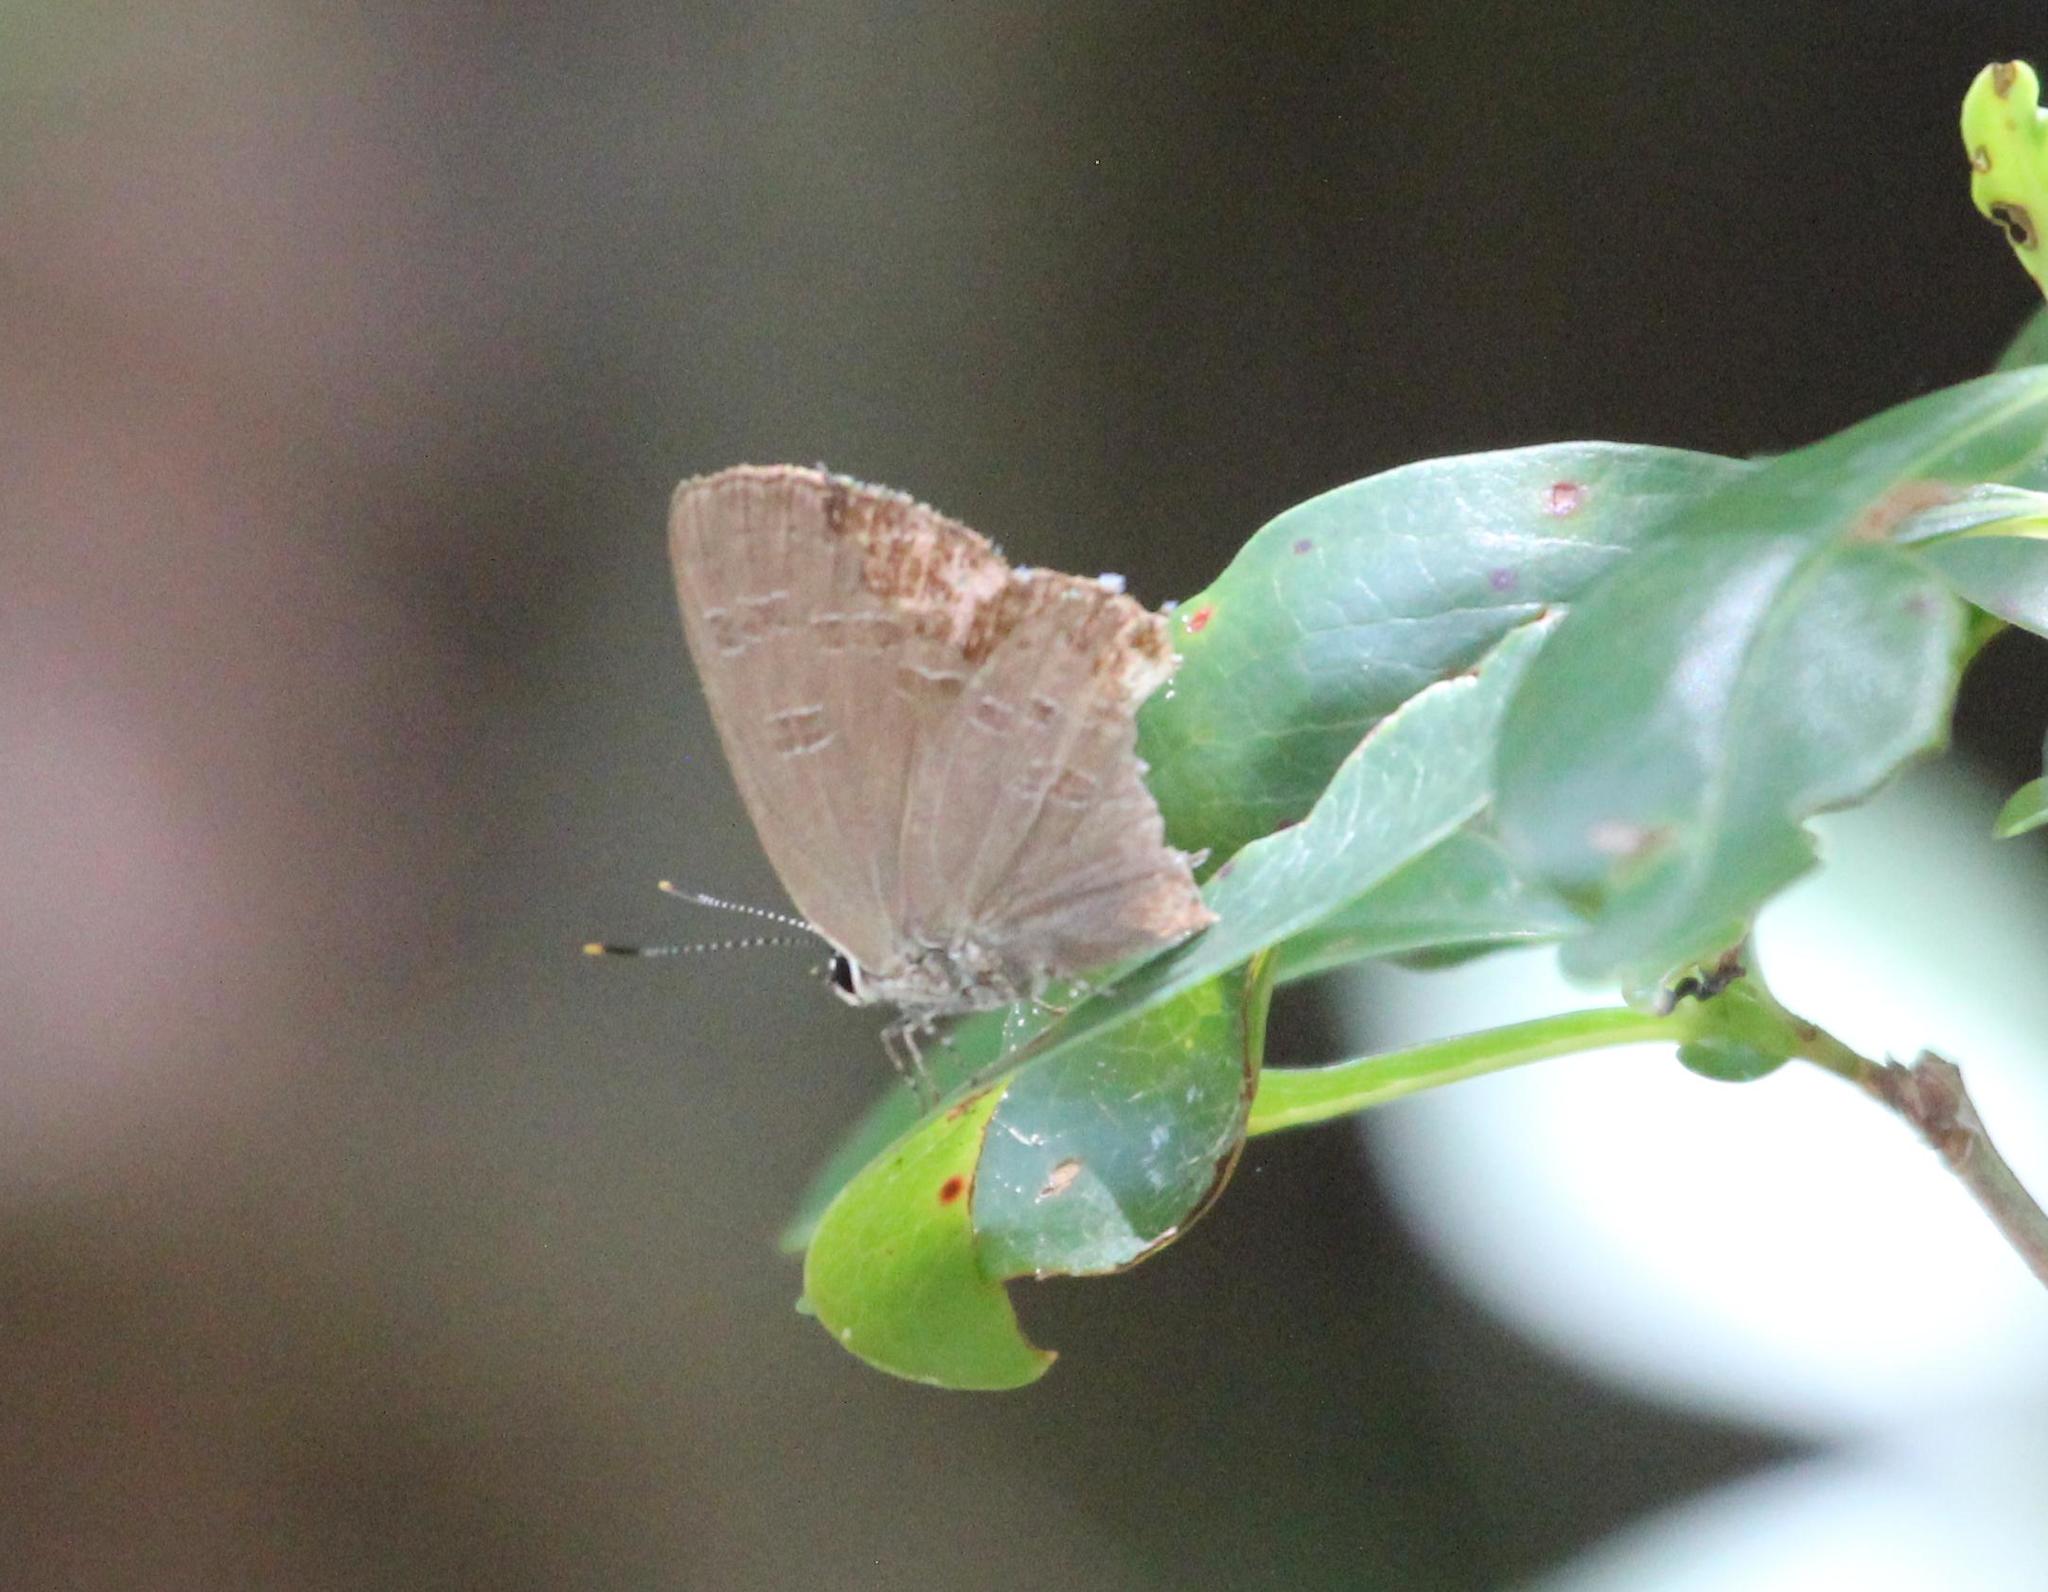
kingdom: Animalia
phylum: Arthropoda
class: Insecta
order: Lepidoptera
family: Lycaenidae
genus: Satyrium
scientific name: Satyrium calanus
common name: Banded hairstreak
